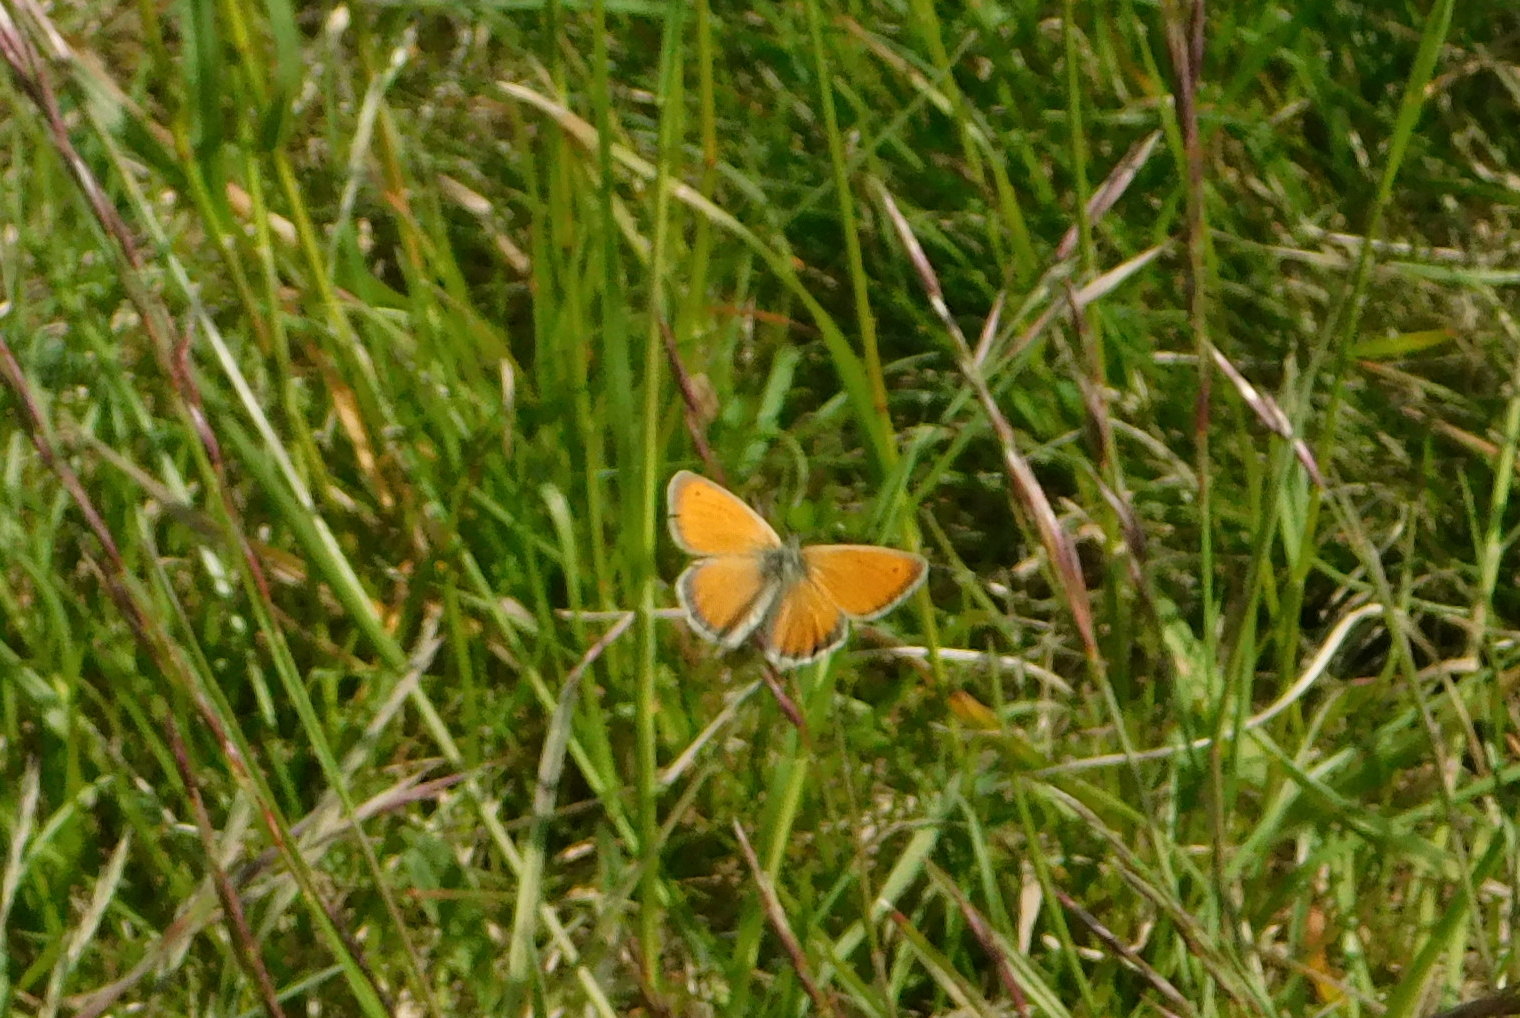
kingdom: Animalia
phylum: Arthropoda
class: Insecta
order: Lepidoptera
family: Nymphalidae
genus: Coenonympha
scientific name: Coenonympha pamphilus
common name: Small heath
